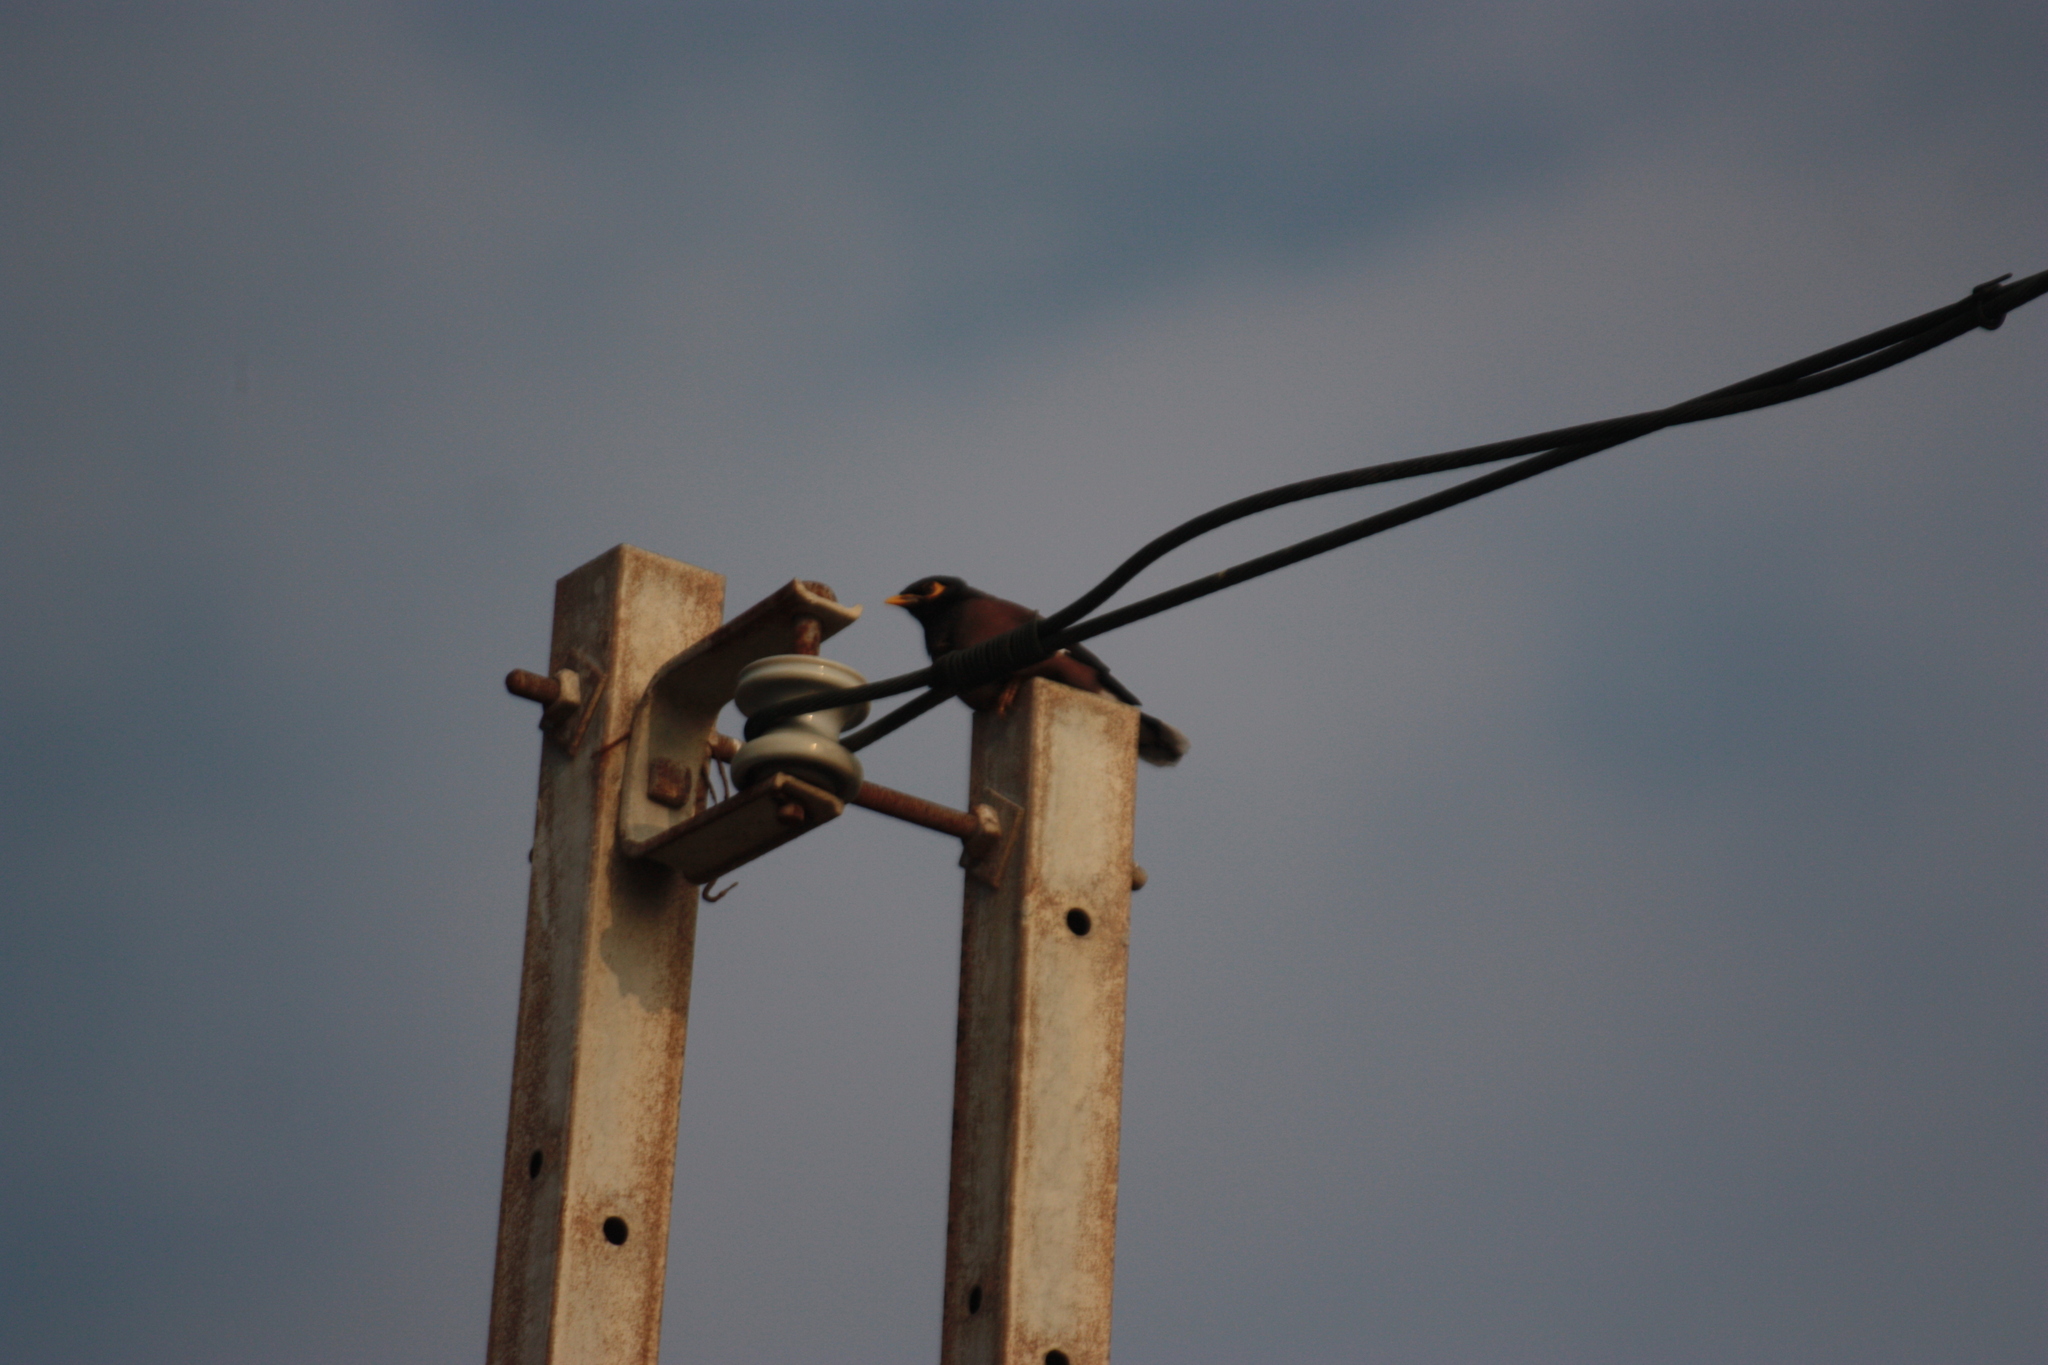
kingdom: Animalia
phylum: Chordata
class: Aves
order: Passeriformes
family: Sturnidae
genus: Acridotheres
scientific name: Acridotheres tristis
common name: Common myna
